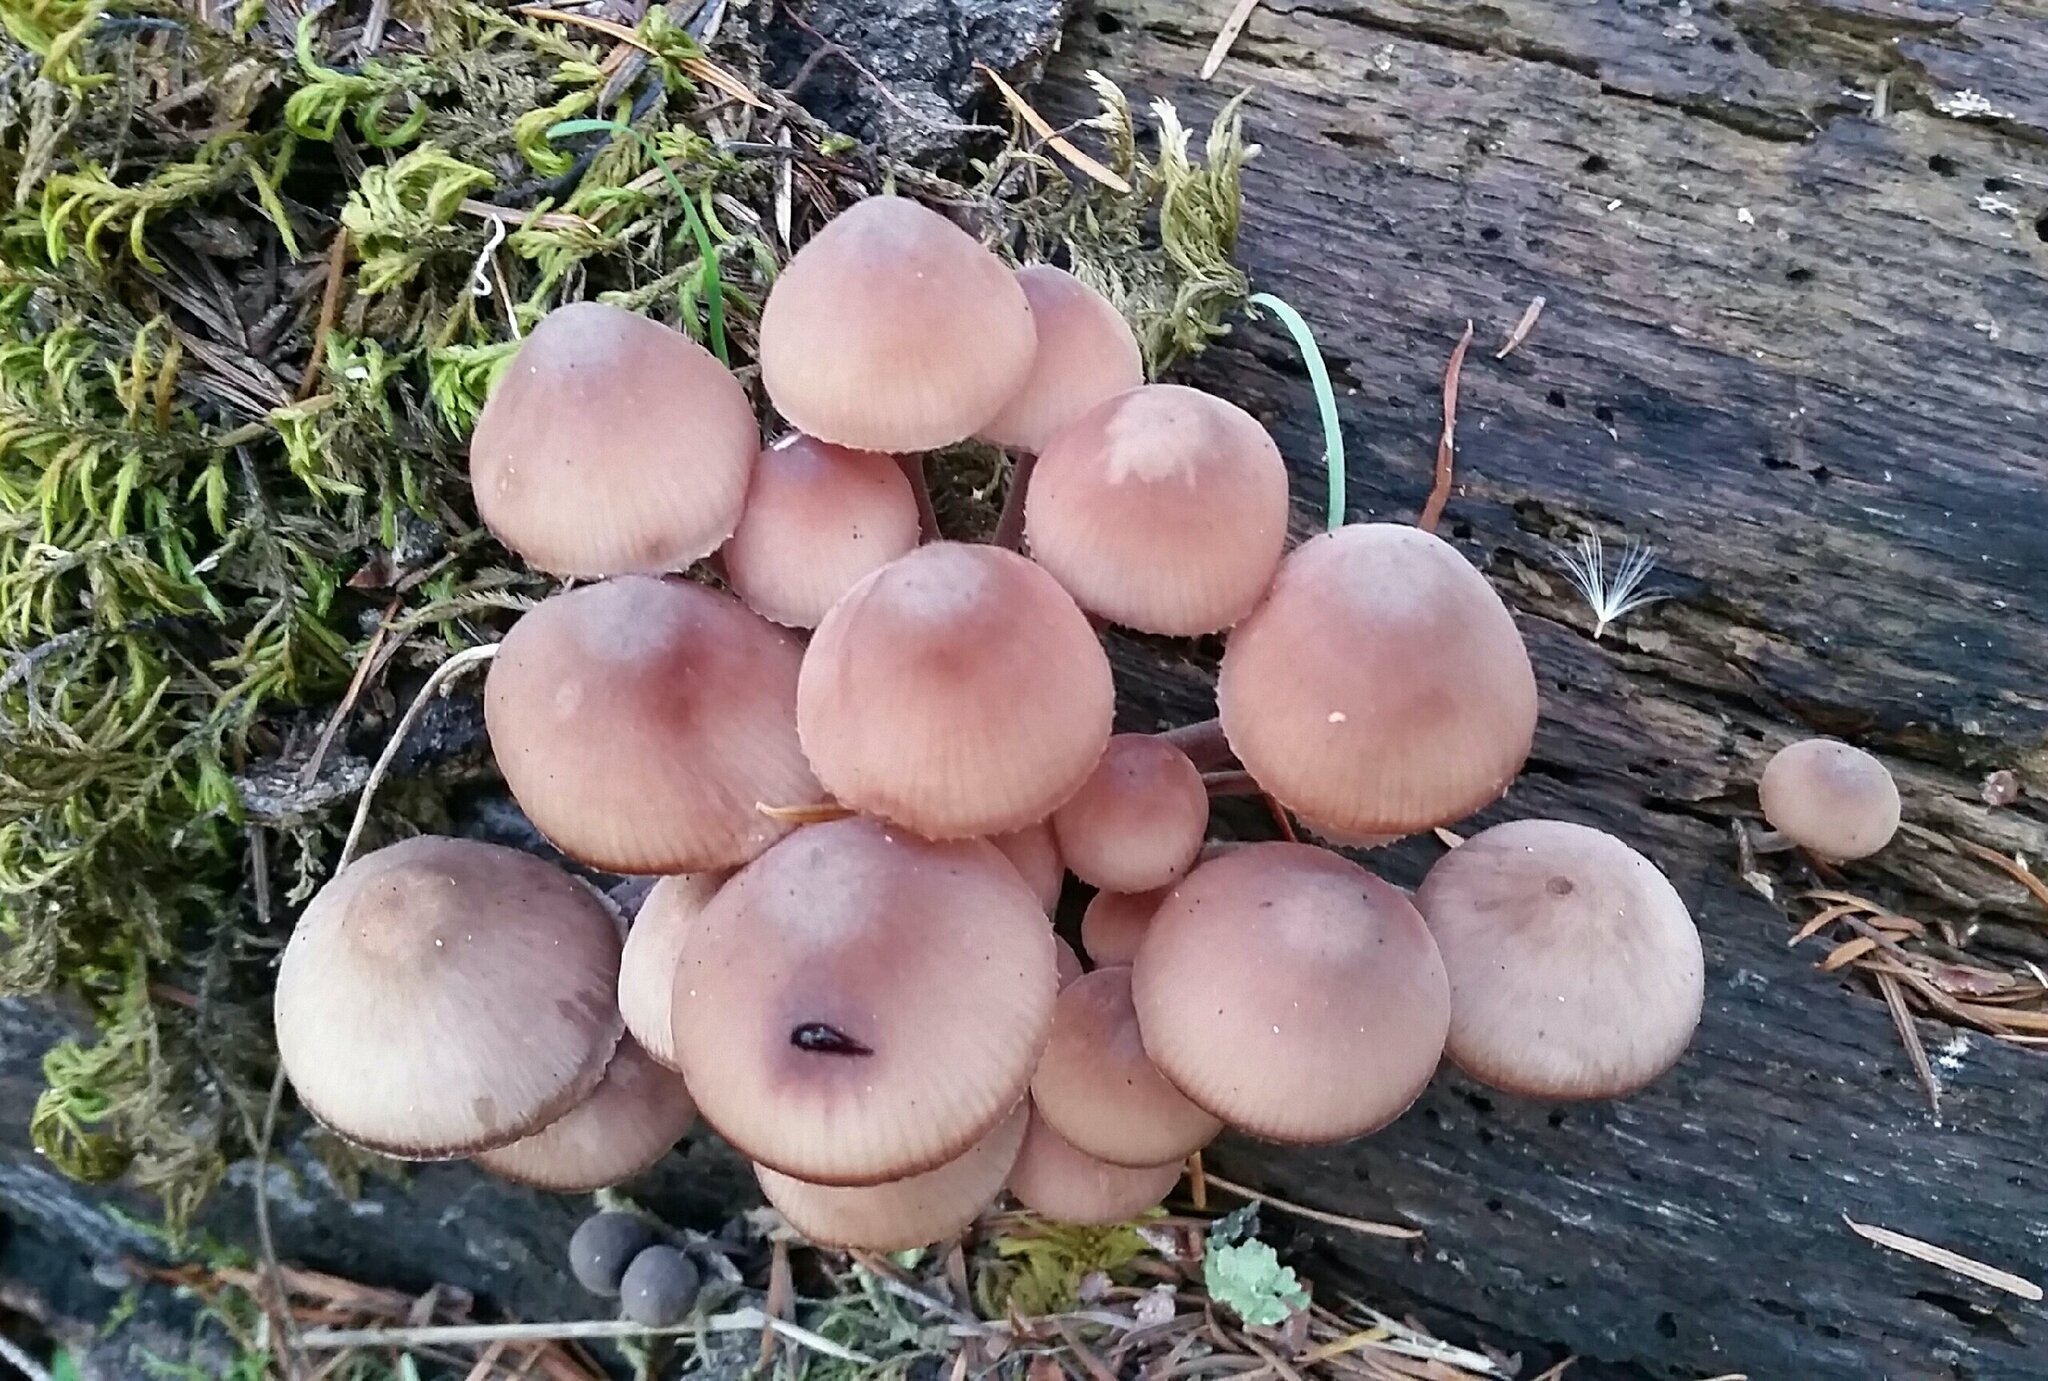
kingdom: Fungi
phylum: Basidiomycota
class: Agaricomycetes
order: Agaricales
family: Mycenaceae
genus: Mycena
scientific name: Mycena haematopus
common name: Burgundydrop bonnet
